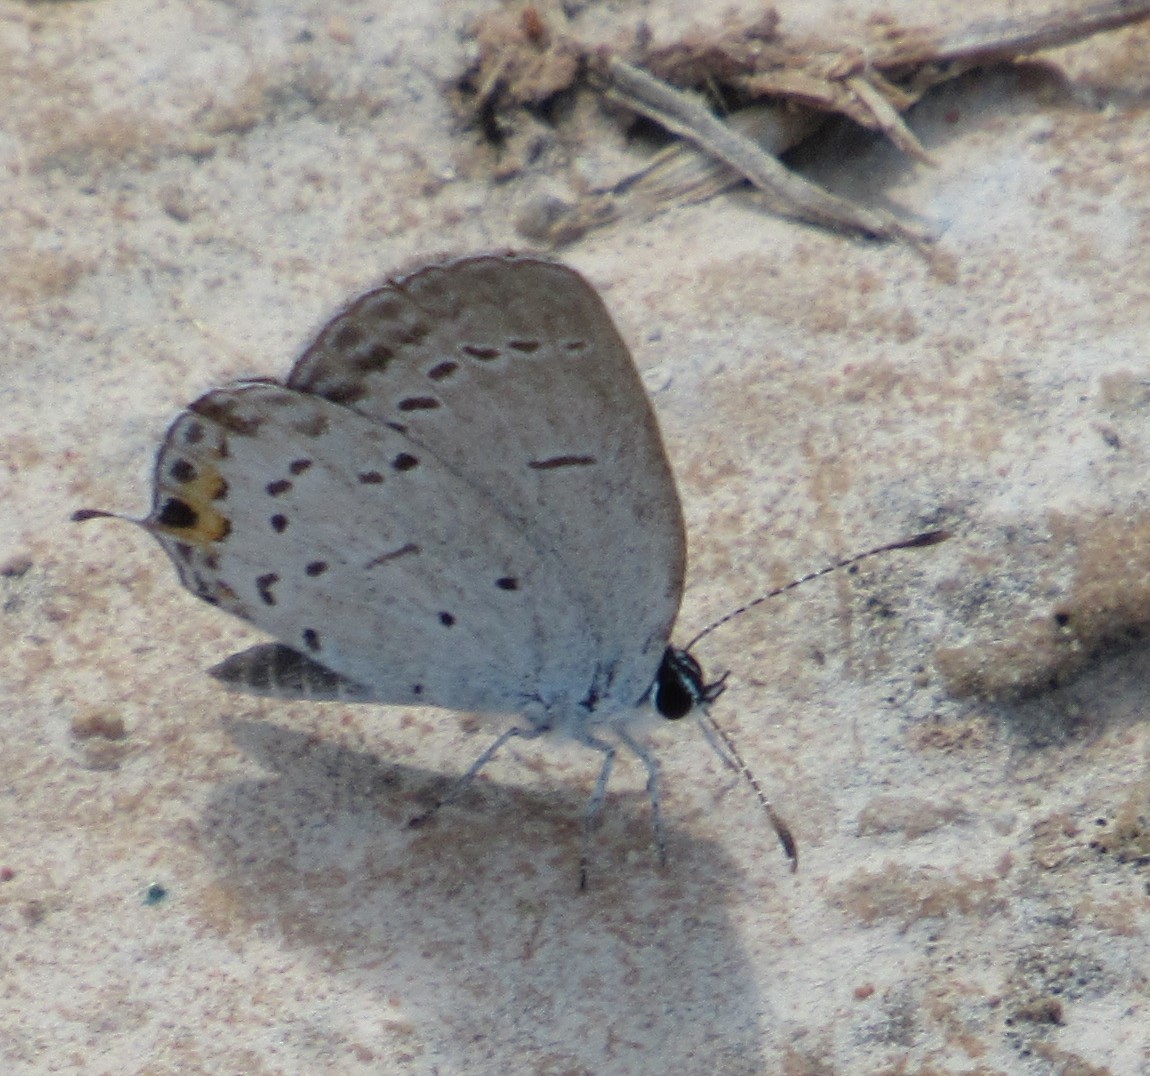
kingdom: Animalia
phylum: Arthropoda
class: Insecta
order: Lepidoptera
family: Lycaenidae
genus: Elkalyce
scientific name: Elkalyce comyntas
